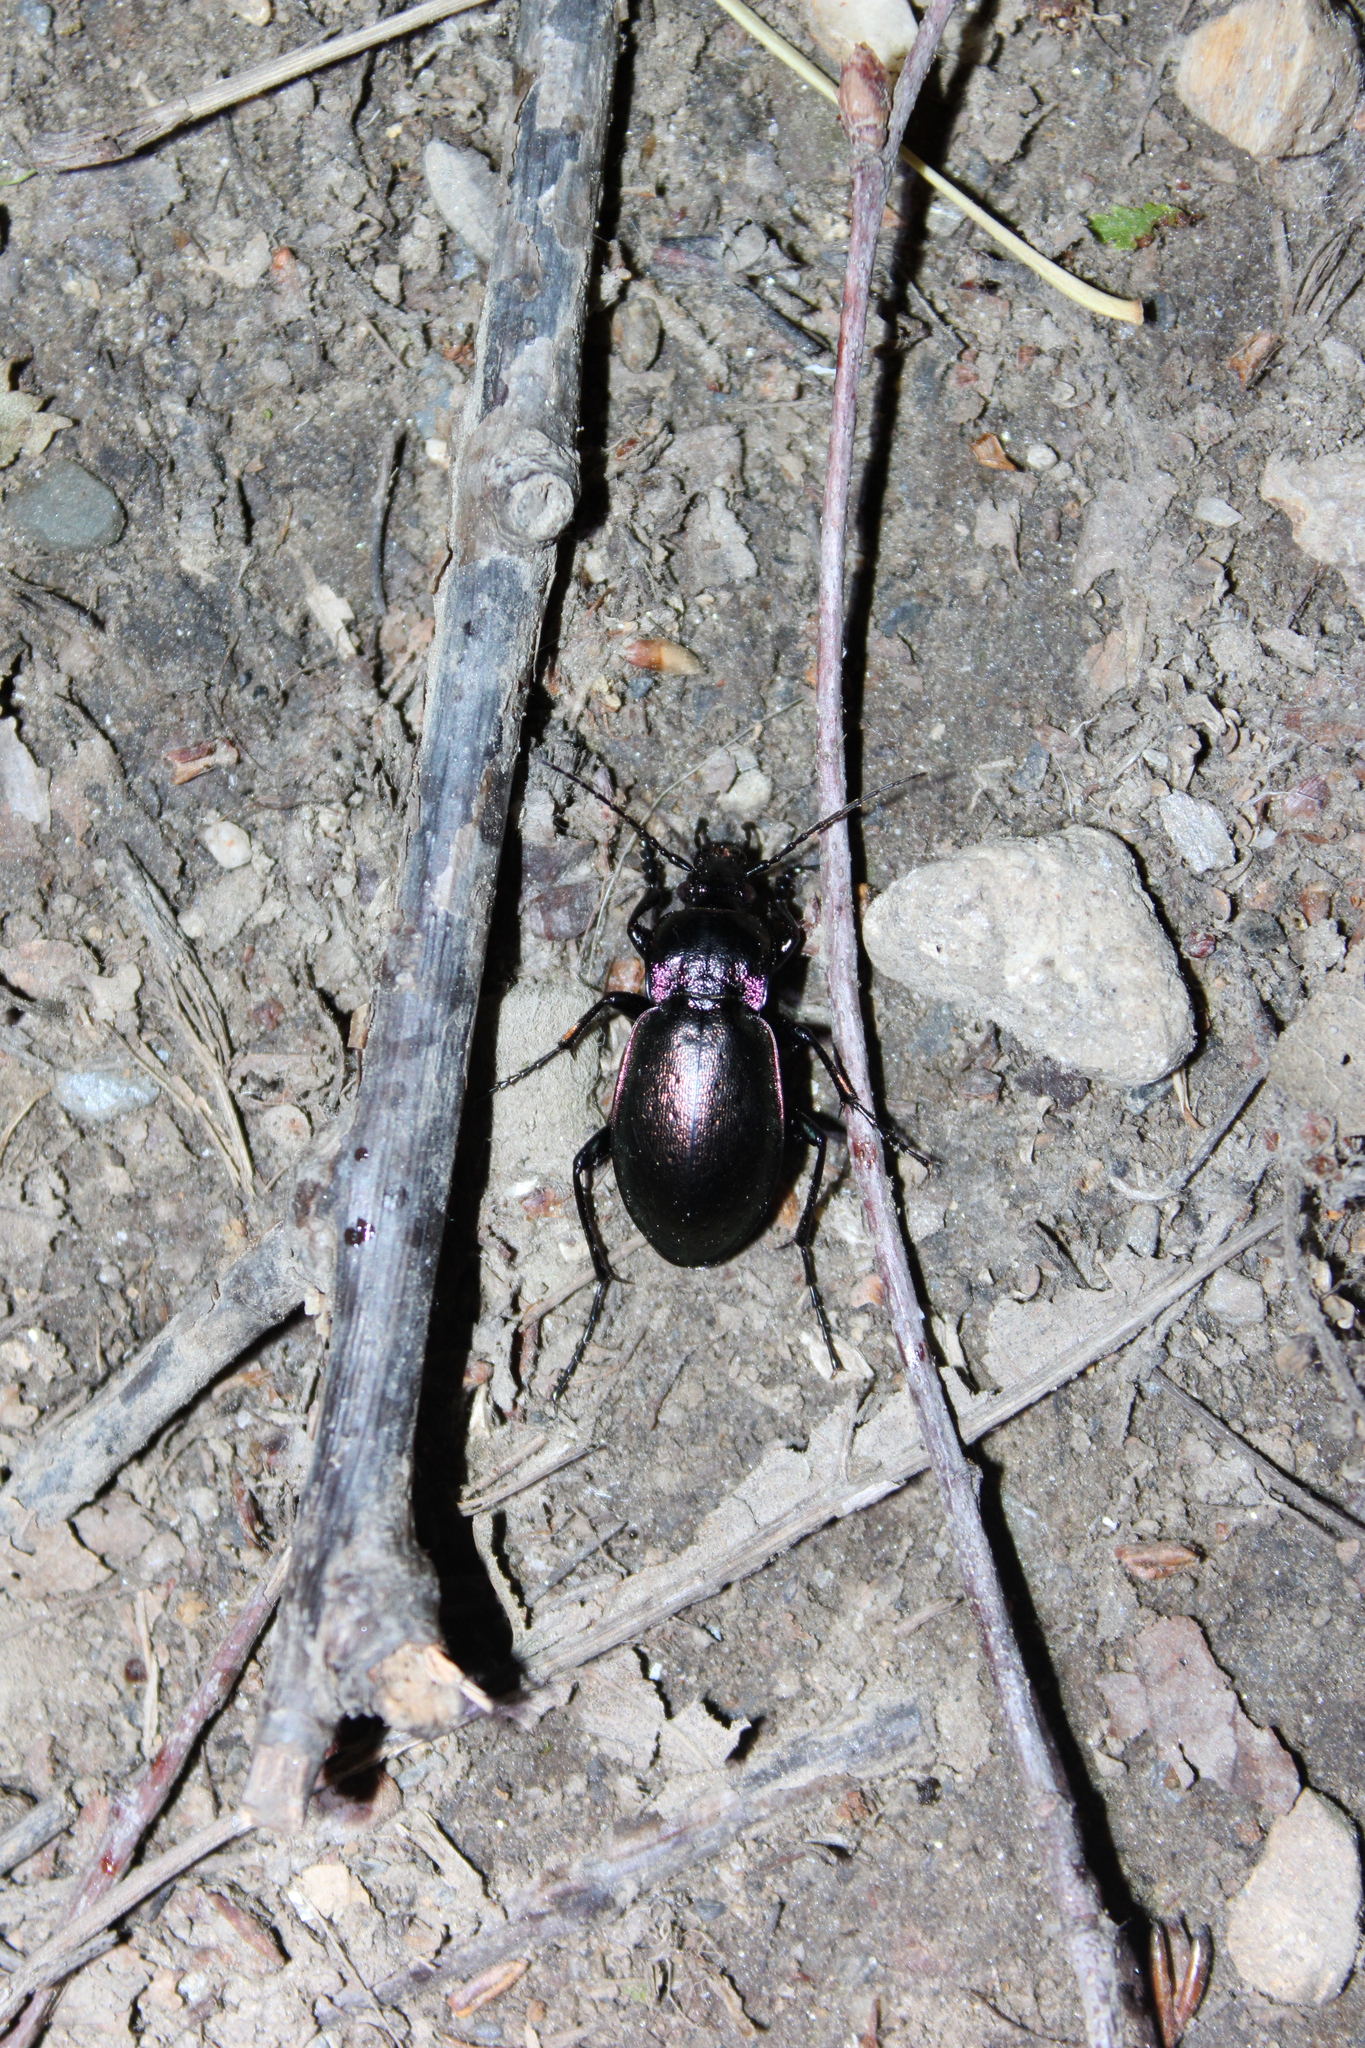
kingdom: Animalia
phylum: Arthropoda
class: Insecta
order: Coleoptera
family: Carabidae
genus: Carabus
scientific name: Carabus nemoralis
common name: European ground beetle
